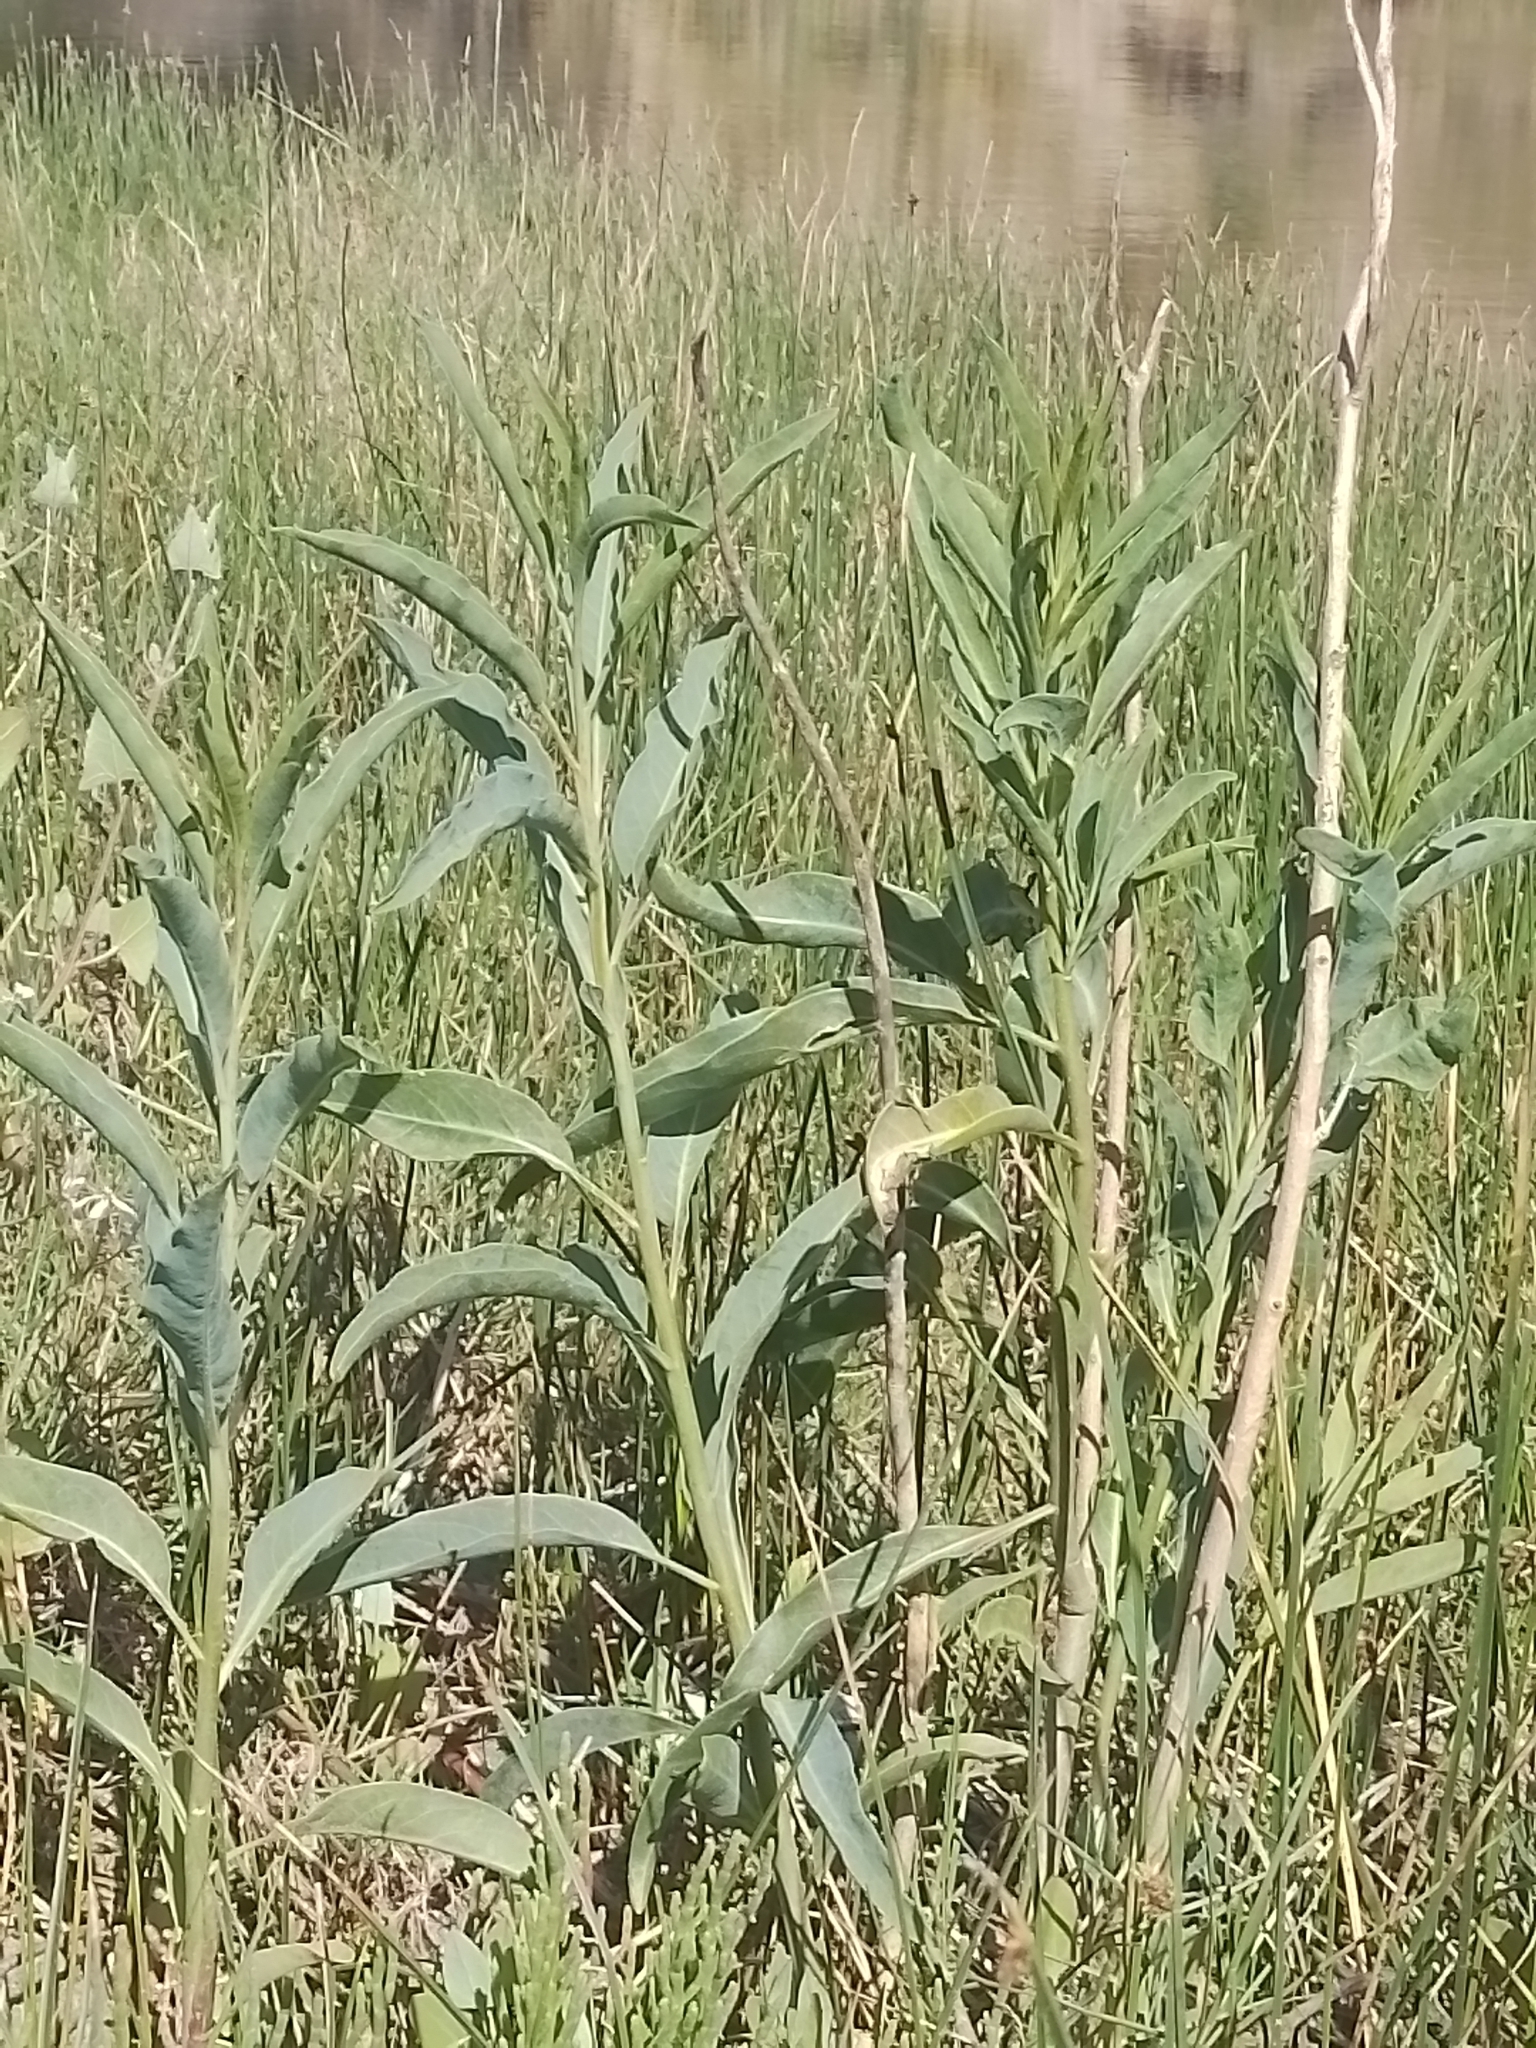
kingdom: Plantae
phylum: Tracheophyta
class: Magnoliopsida
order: Solanales
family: Solanaceae
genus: Solanum
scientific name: Solanum glaucophyllum
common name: Waxyleaf nightshade
